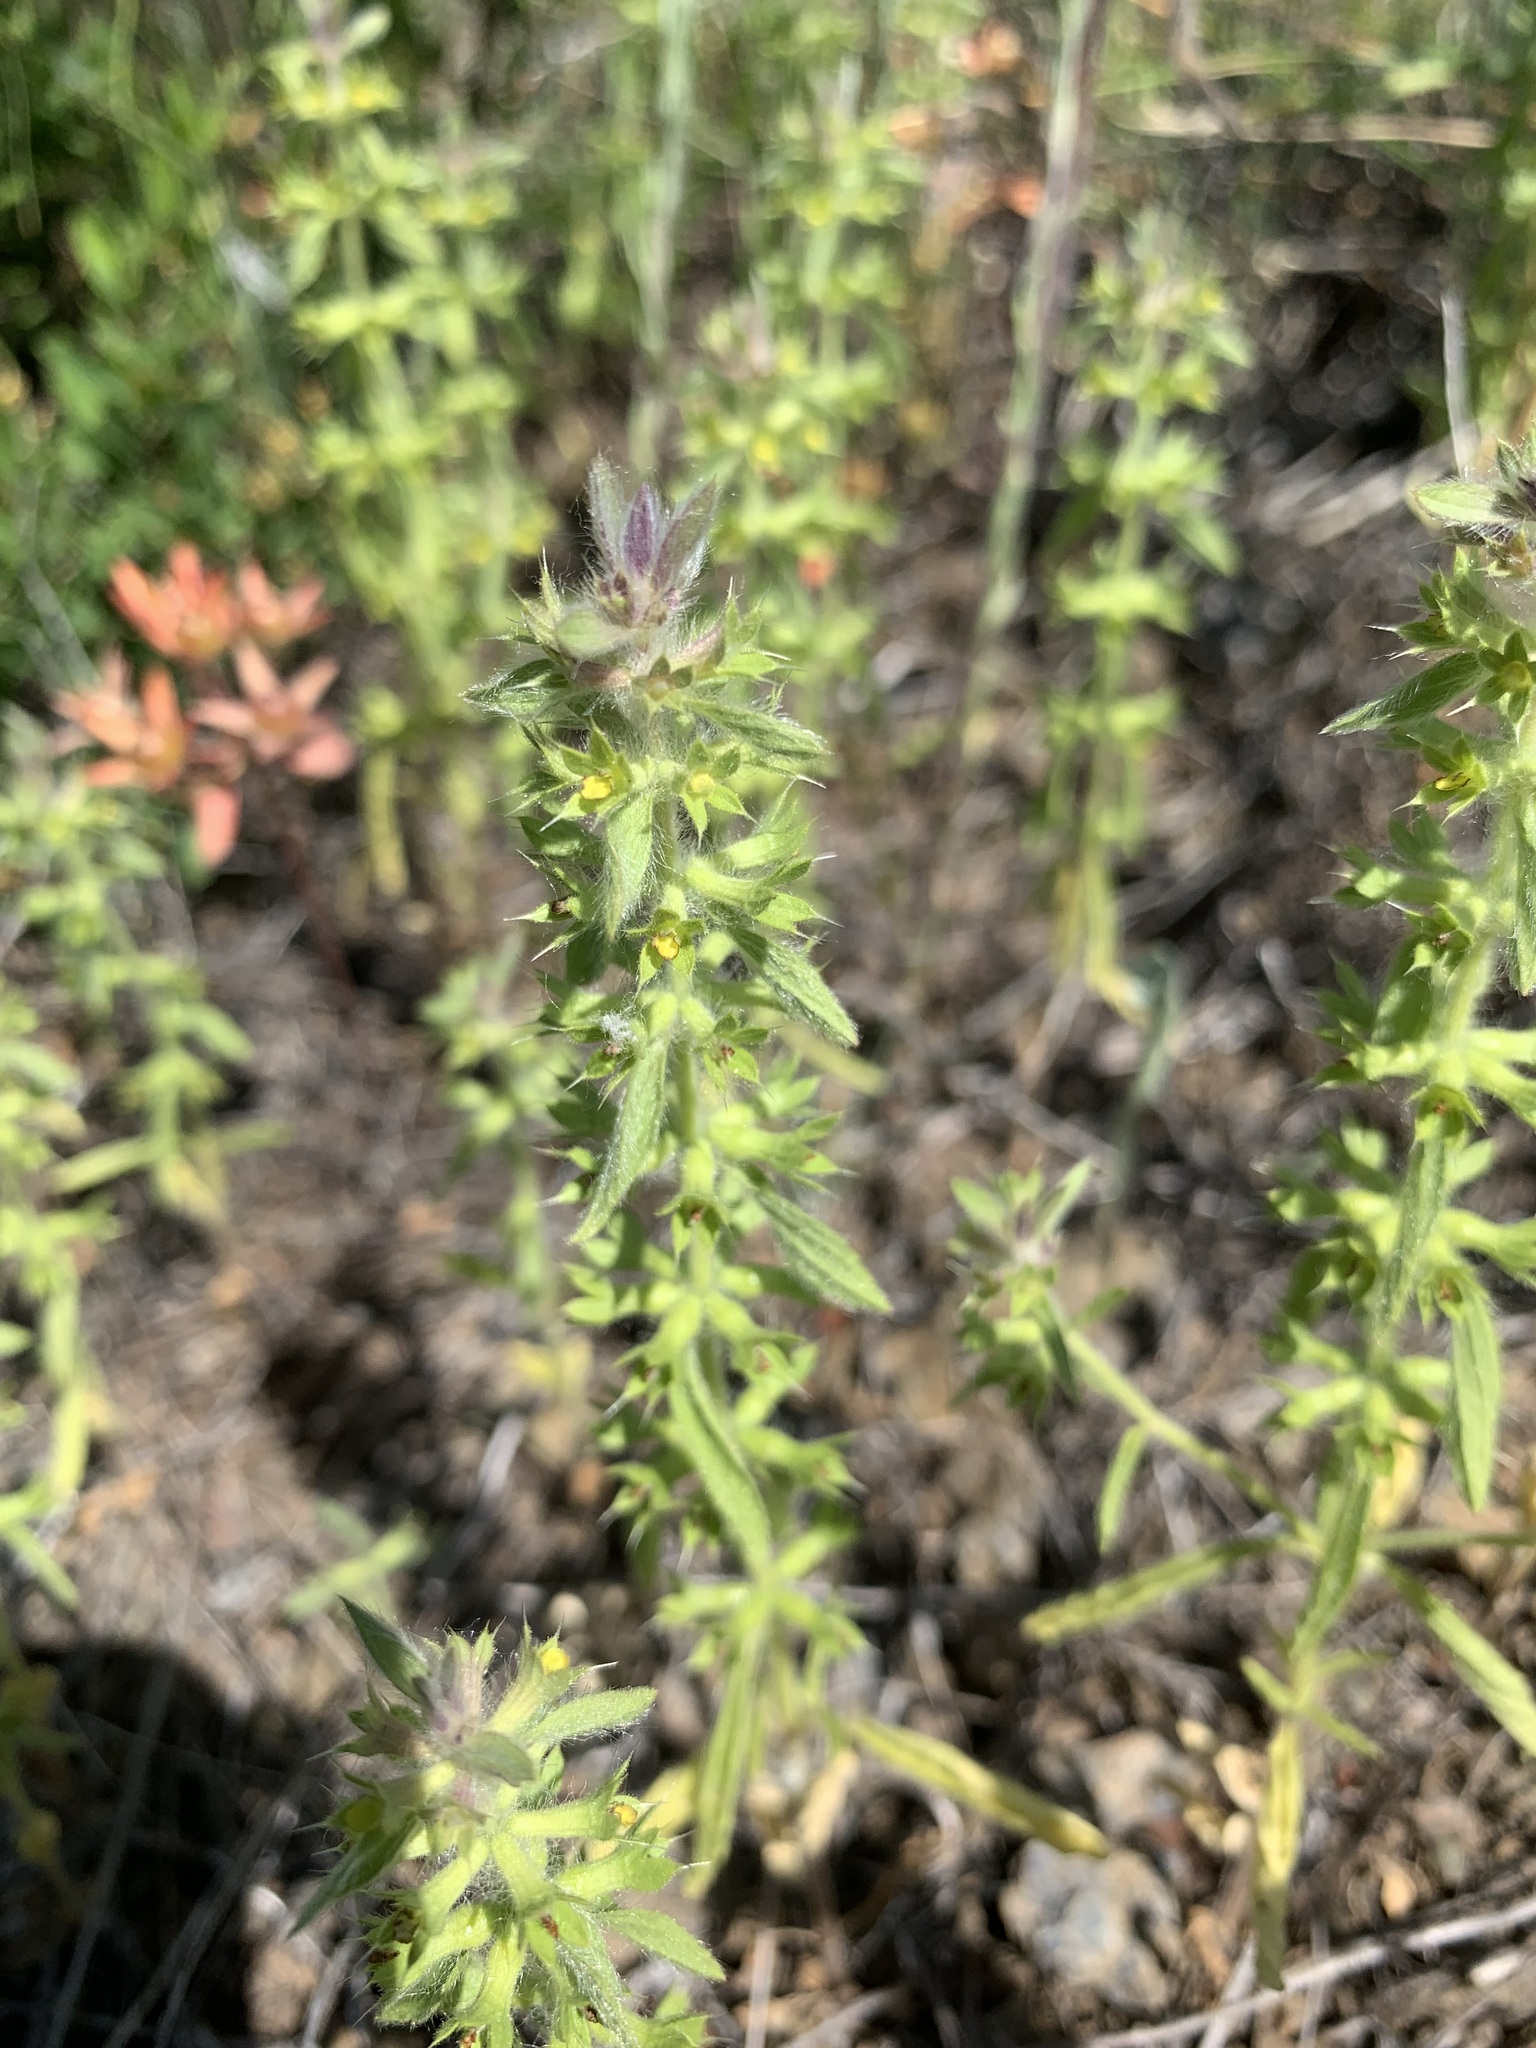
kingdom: Plantae
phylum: Tracheophyta
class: Magnoliopsida
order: Lamiales
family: Lamiaceae
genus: Sideritis
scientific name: Sideritis montana
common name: Mountain ironwort
